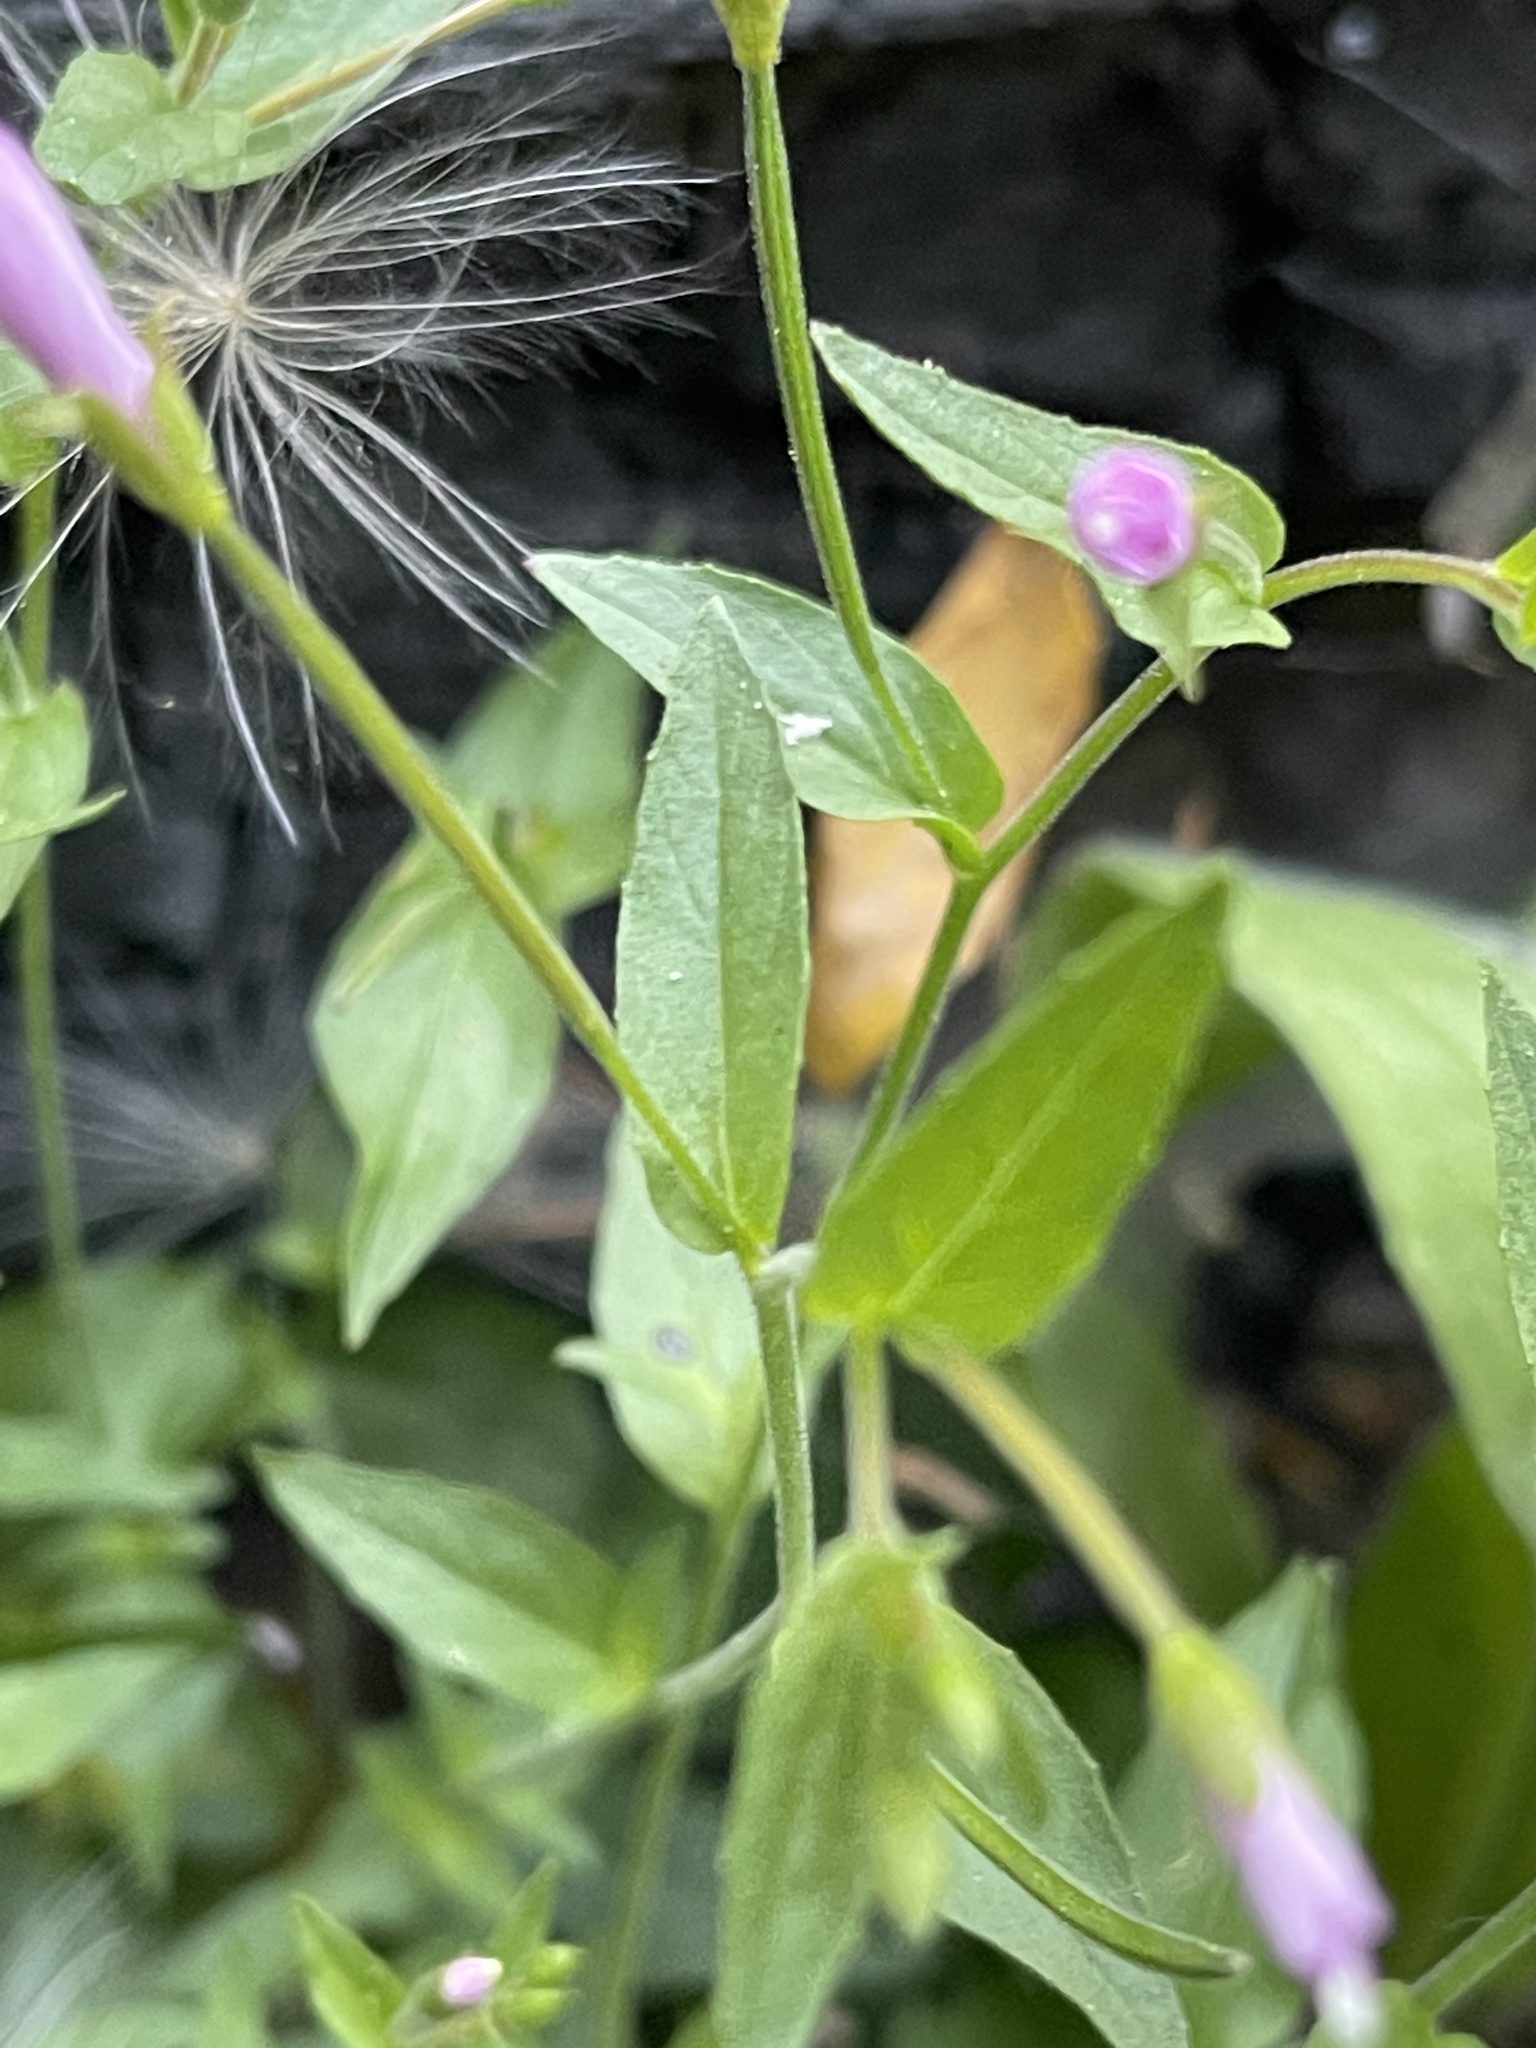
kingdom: Plantae
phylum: Tracheophyta
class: Magnoliopsida
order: Myrtales
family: Onagraceae
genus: Epilobium
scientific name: Epilobium ciliatum
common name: American willowherb
